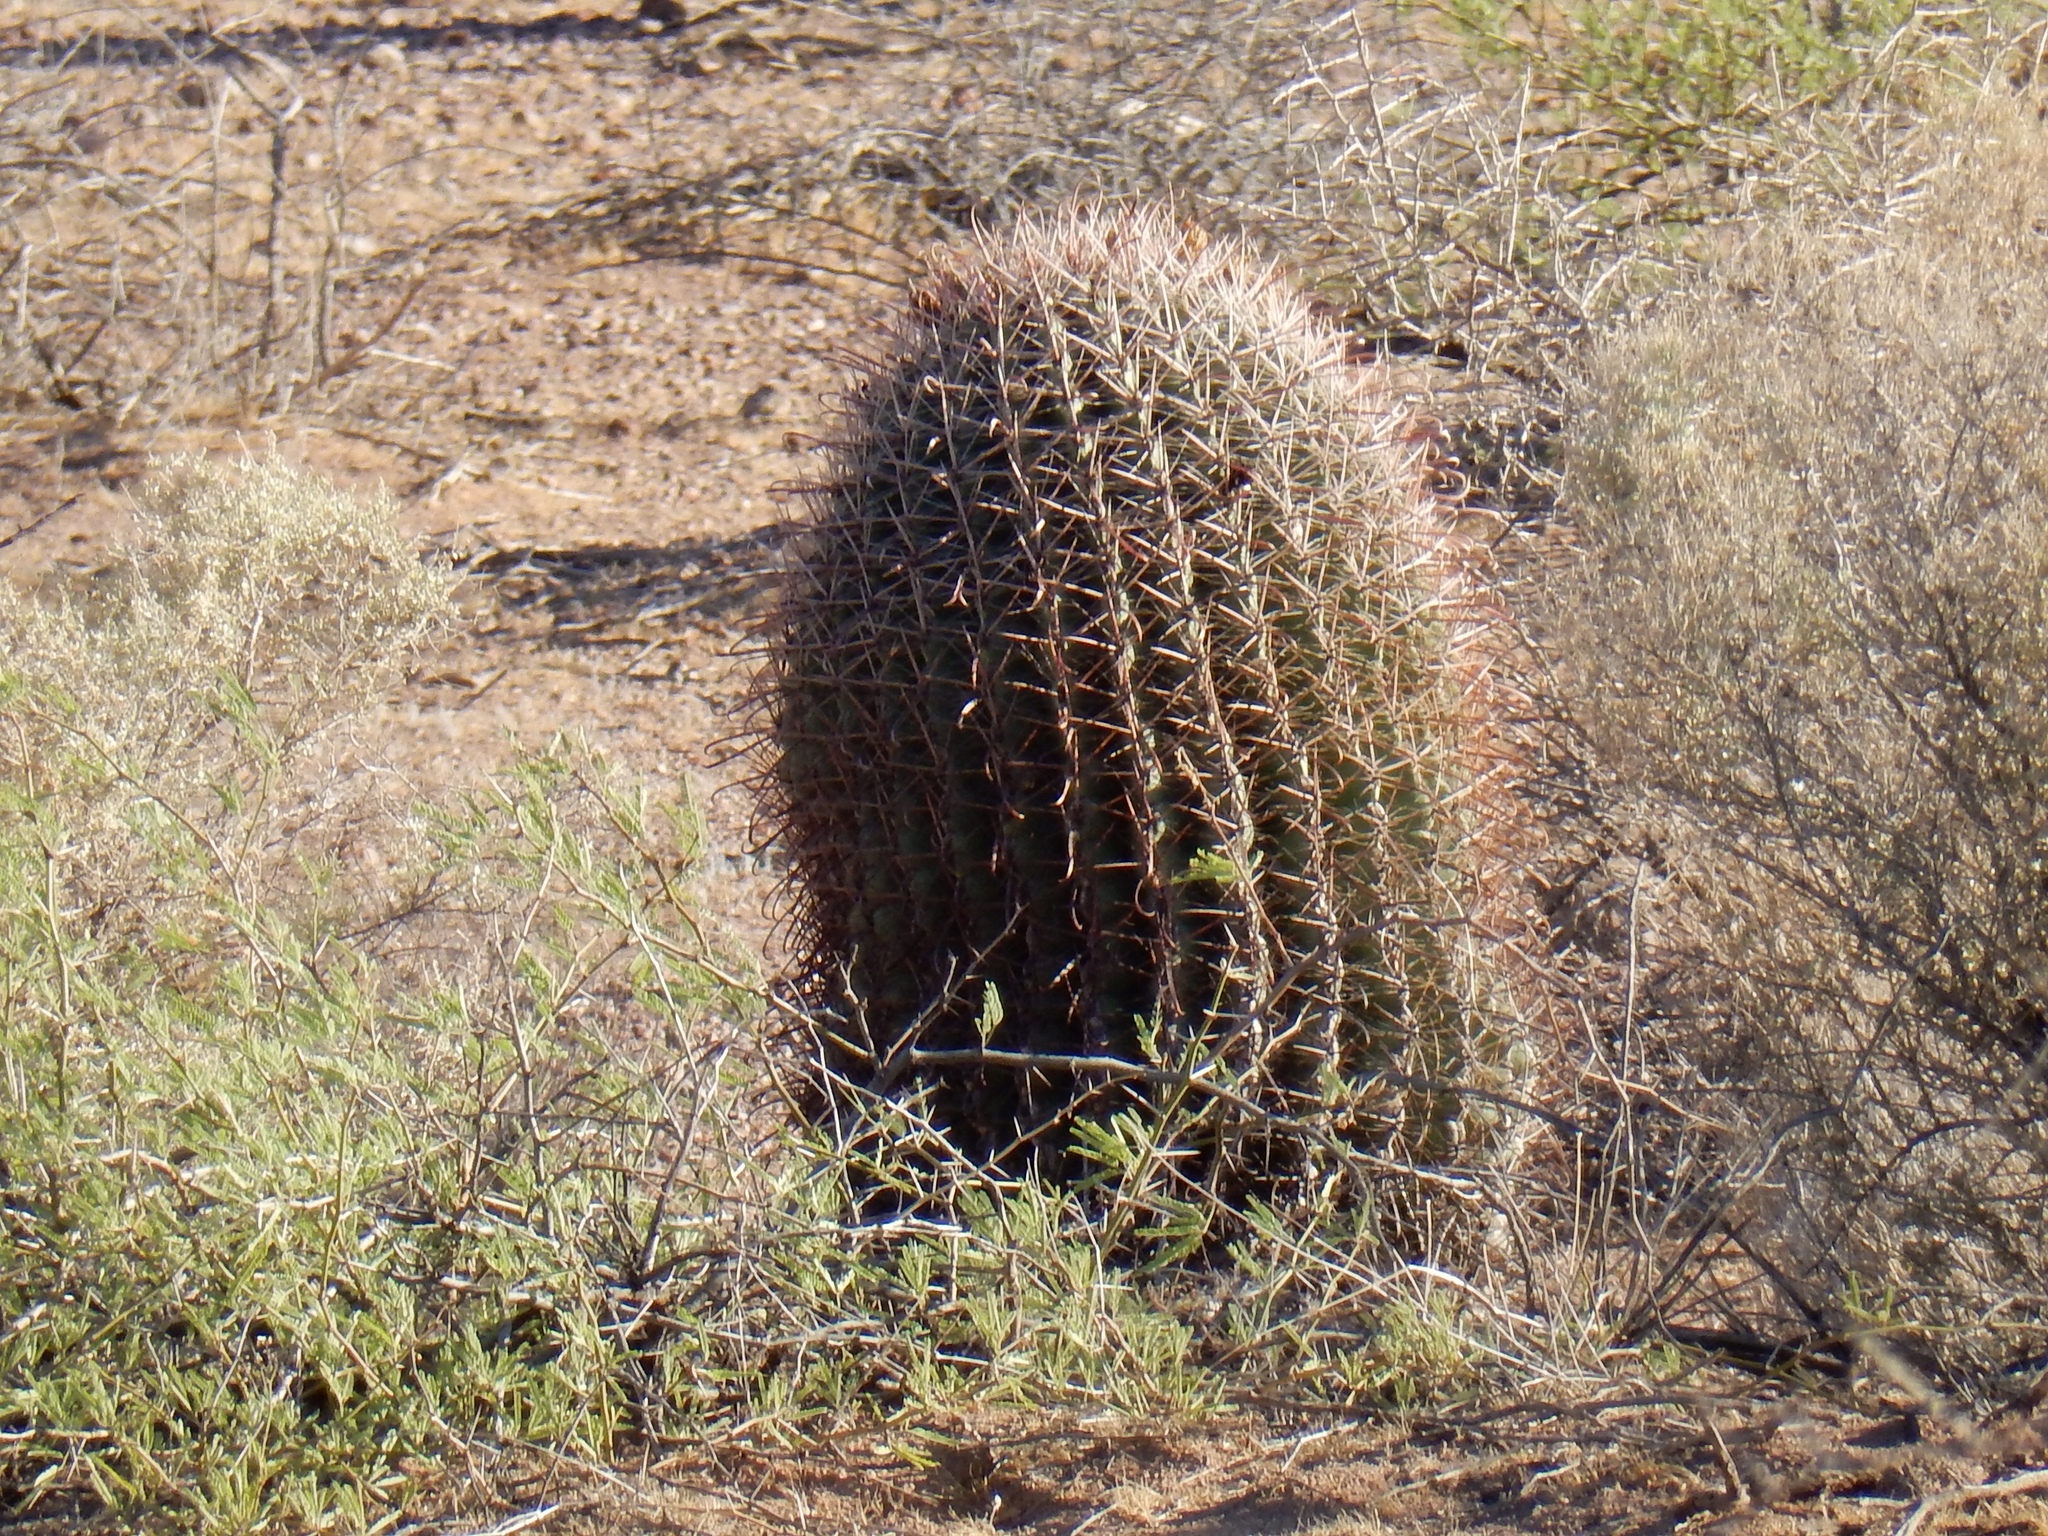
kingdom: Plantae
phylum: Tracheophyta
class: Magnoliopsida
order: Caryophyllales
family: Cactaceae
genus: Ferocactus
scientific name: Ferocactus wislizeni
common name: Candy barrel cactus
